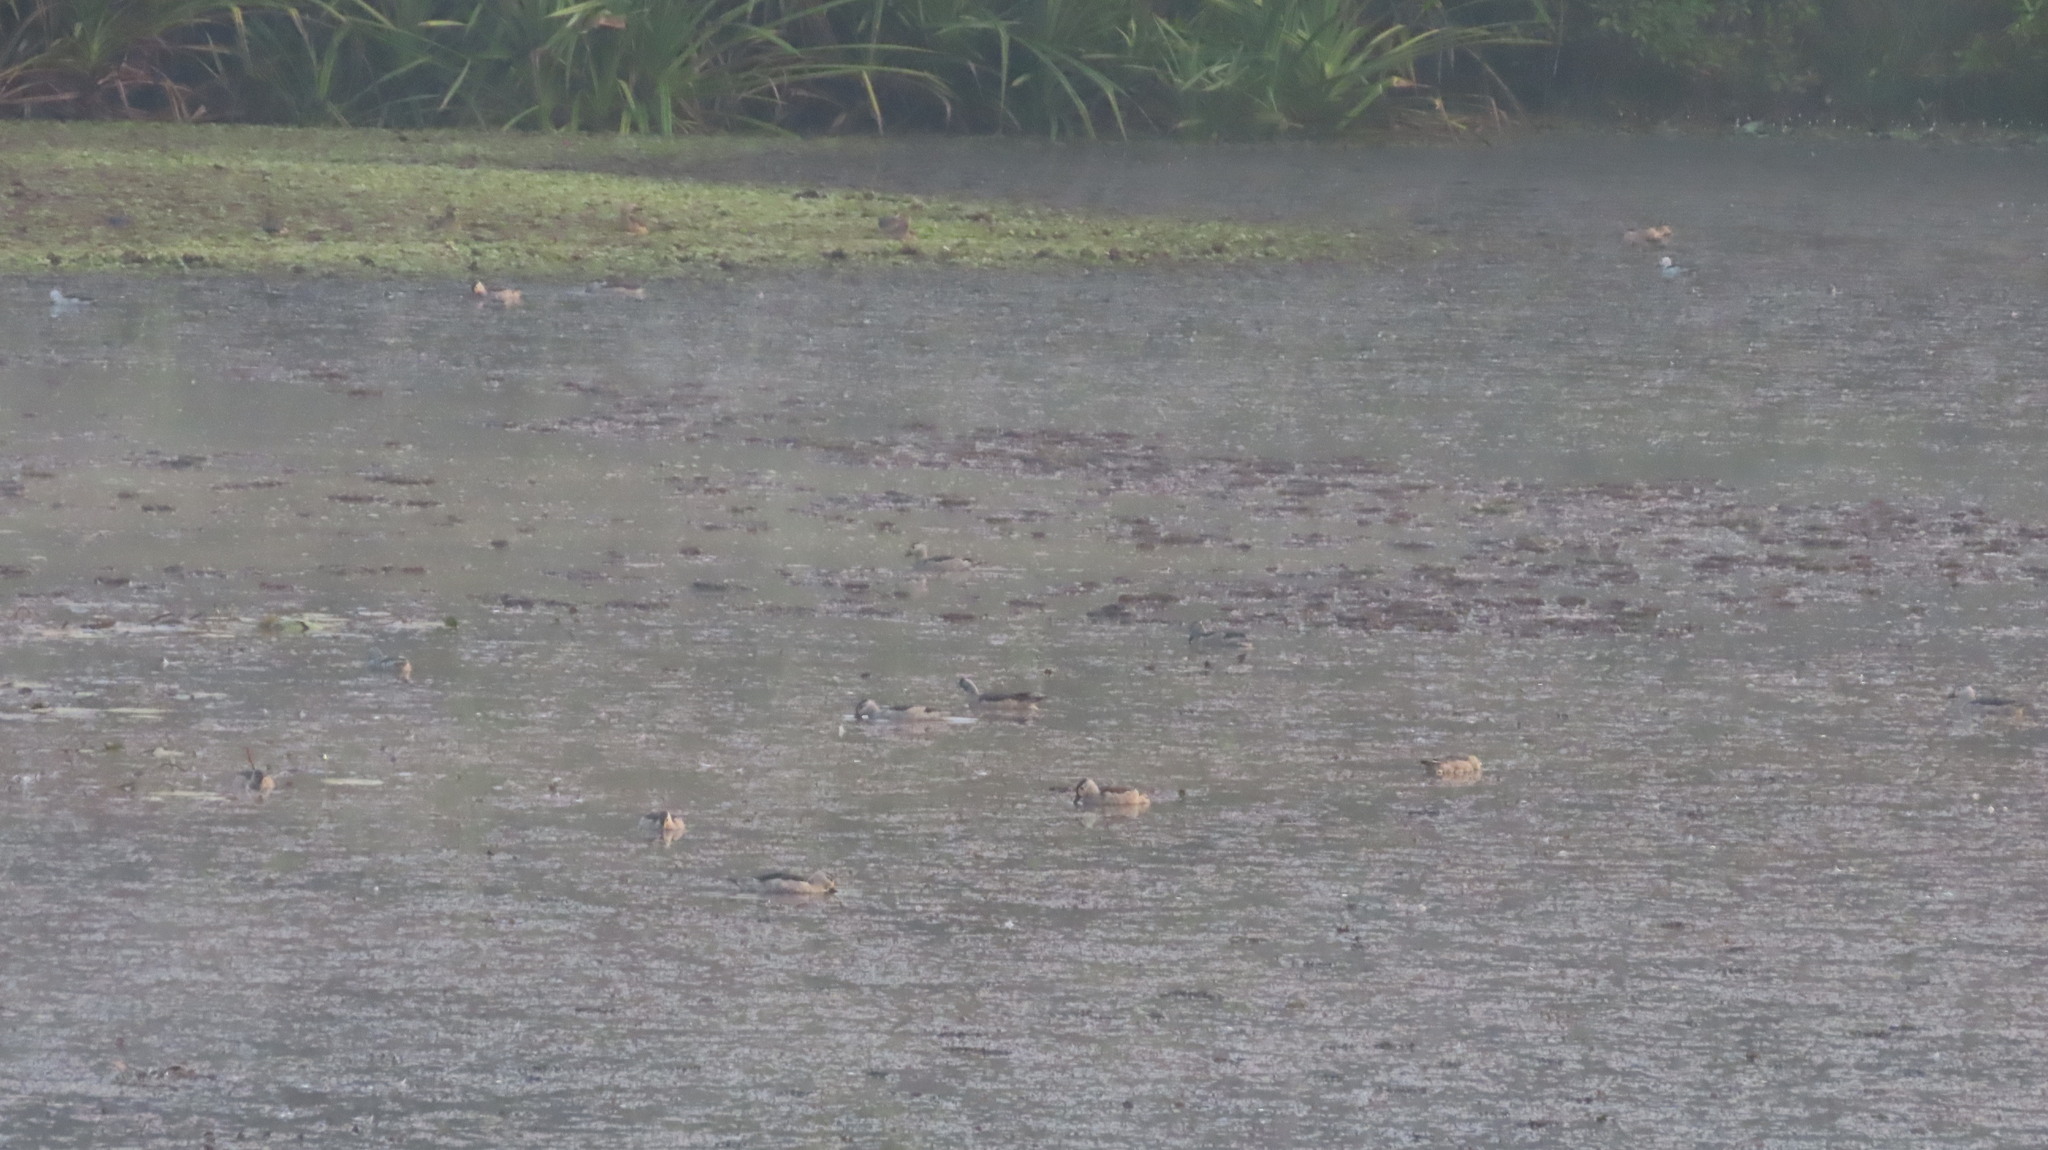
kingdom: Animalia
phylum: Chordata
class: Aves
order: Anseriformes
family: Anatidae
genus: Nettapus
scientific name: Nettapus coromandelianus
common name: Cotton pygmy-goose
